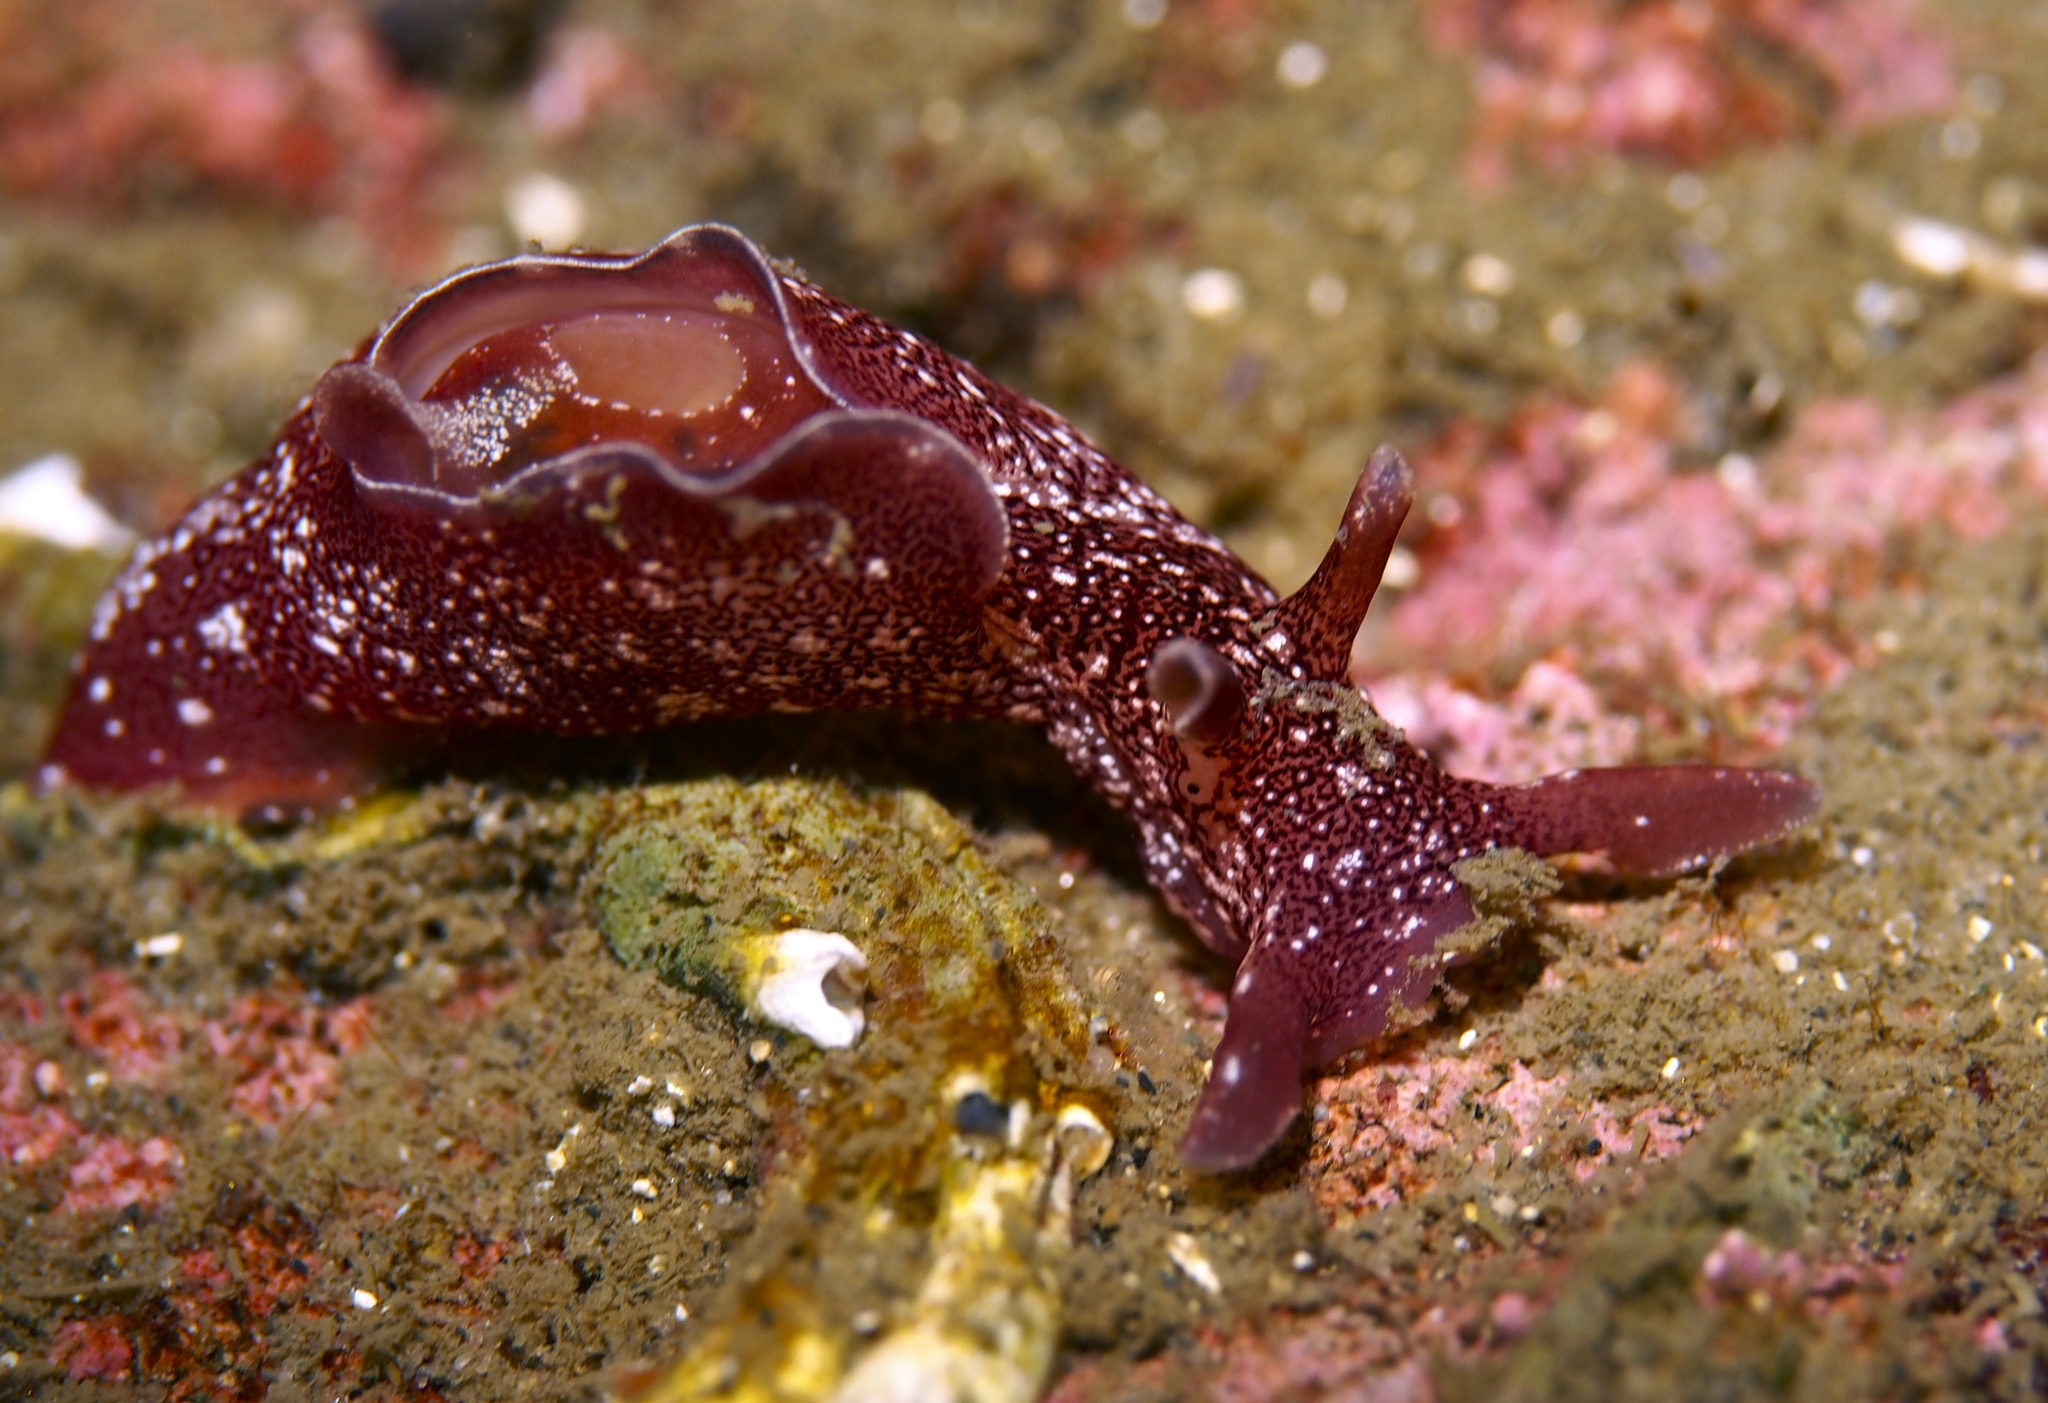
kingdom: Animalia
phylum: Mollusca
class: Gastropoda
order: Aplysiida
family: Aplysiidae
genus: Aplysia
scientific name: Aplysia punctata
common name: Common sea hare
